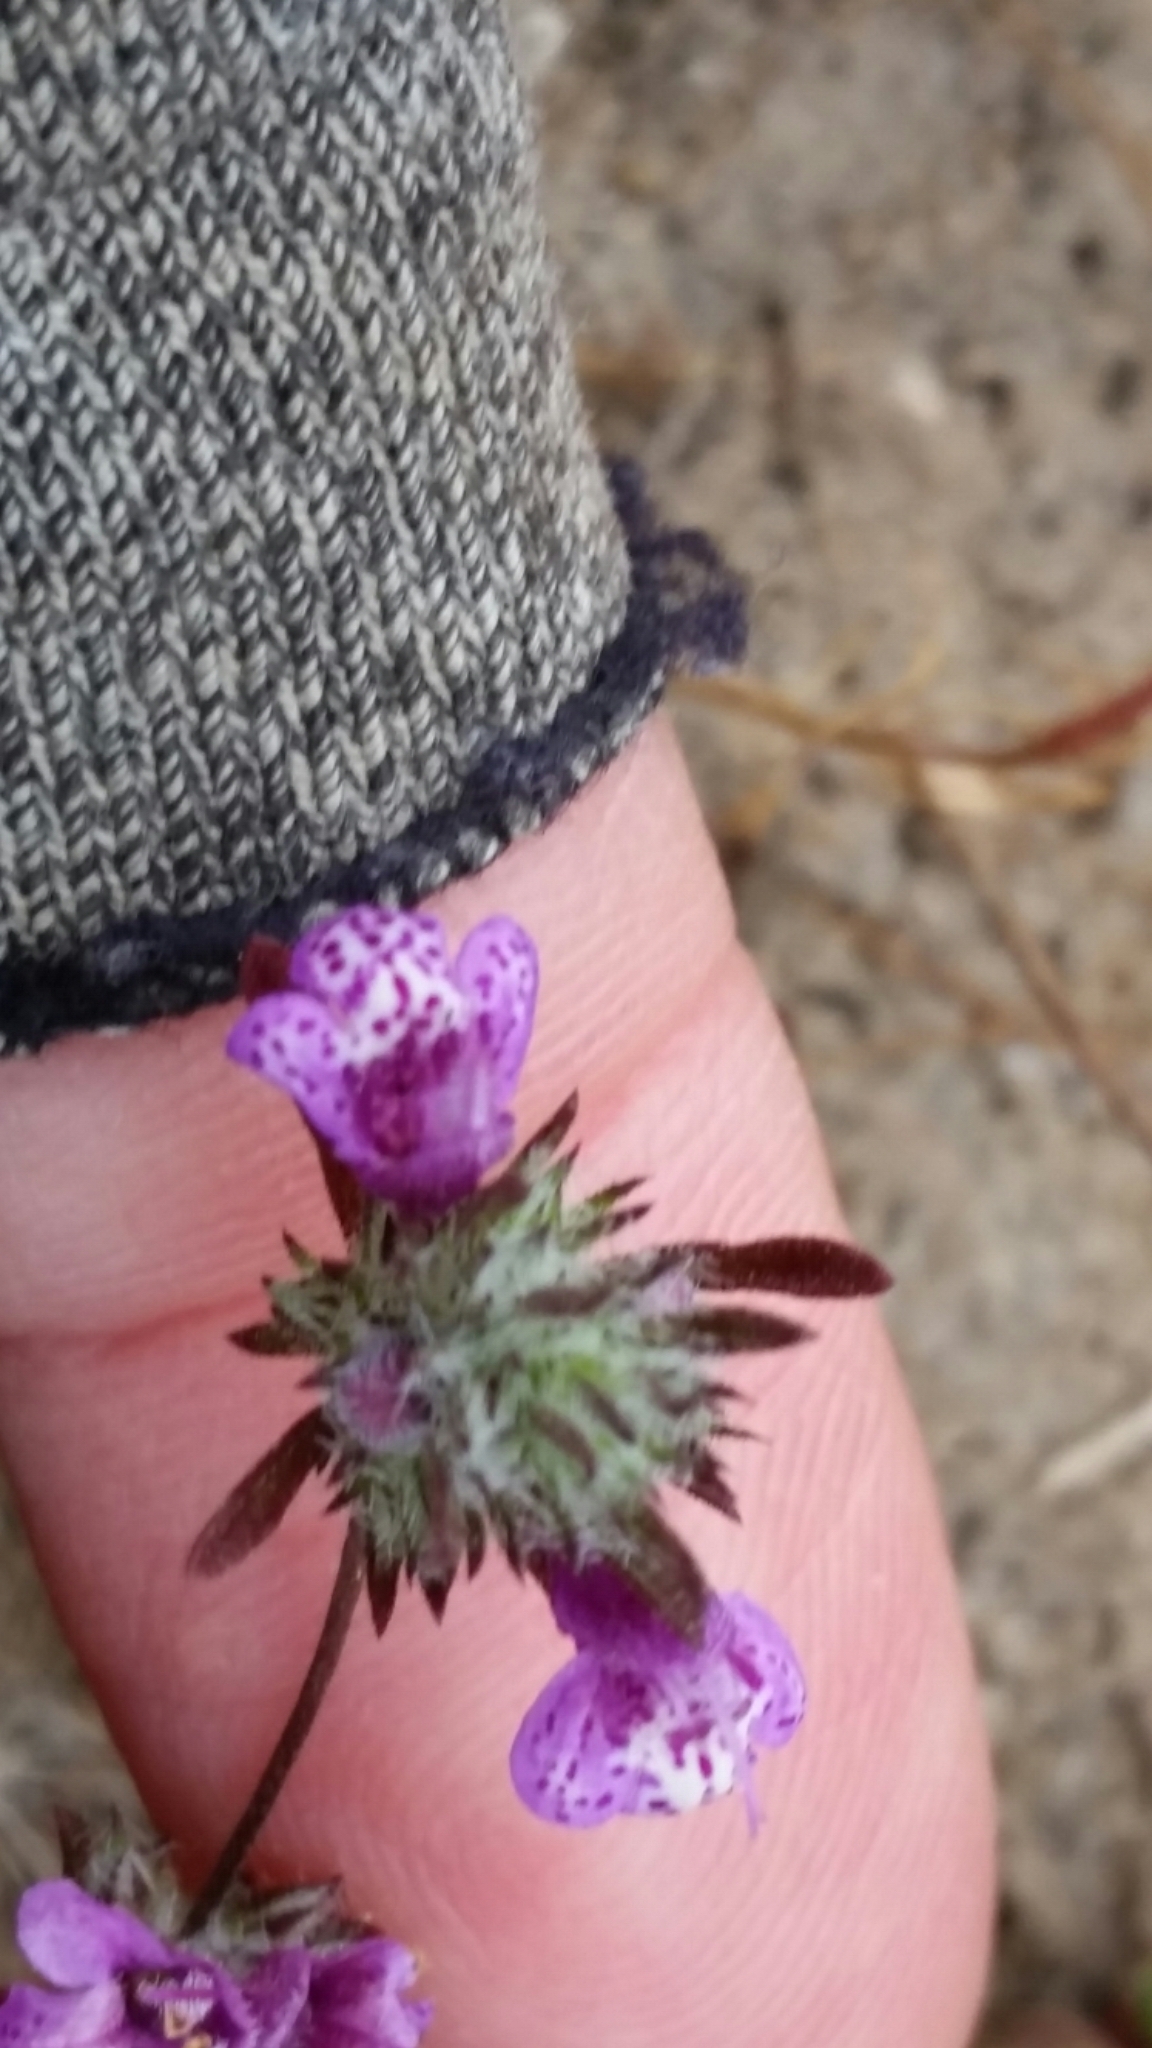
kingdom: Plantae
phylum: Tracheophyta
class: Magnoliopsida
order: Lamiales
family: Lamiaceae
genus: Pogogyne
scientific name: Pogogyne abramsii
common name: San diego mesa-mint
